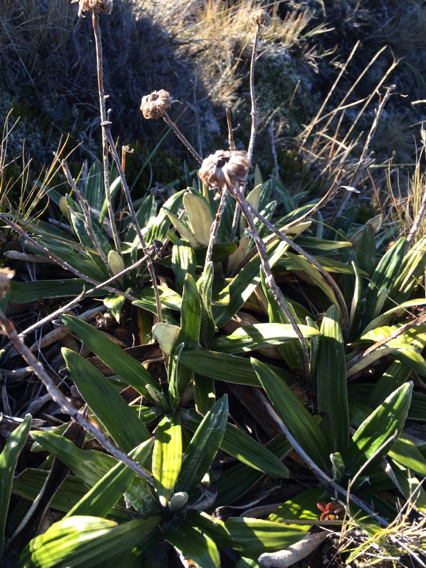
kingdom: Plantae
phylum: Tracheophyta
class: Magnoliopsida
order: Asterales
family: Asteraceae
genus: Celmisia
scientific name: Celmisia spectabilis
